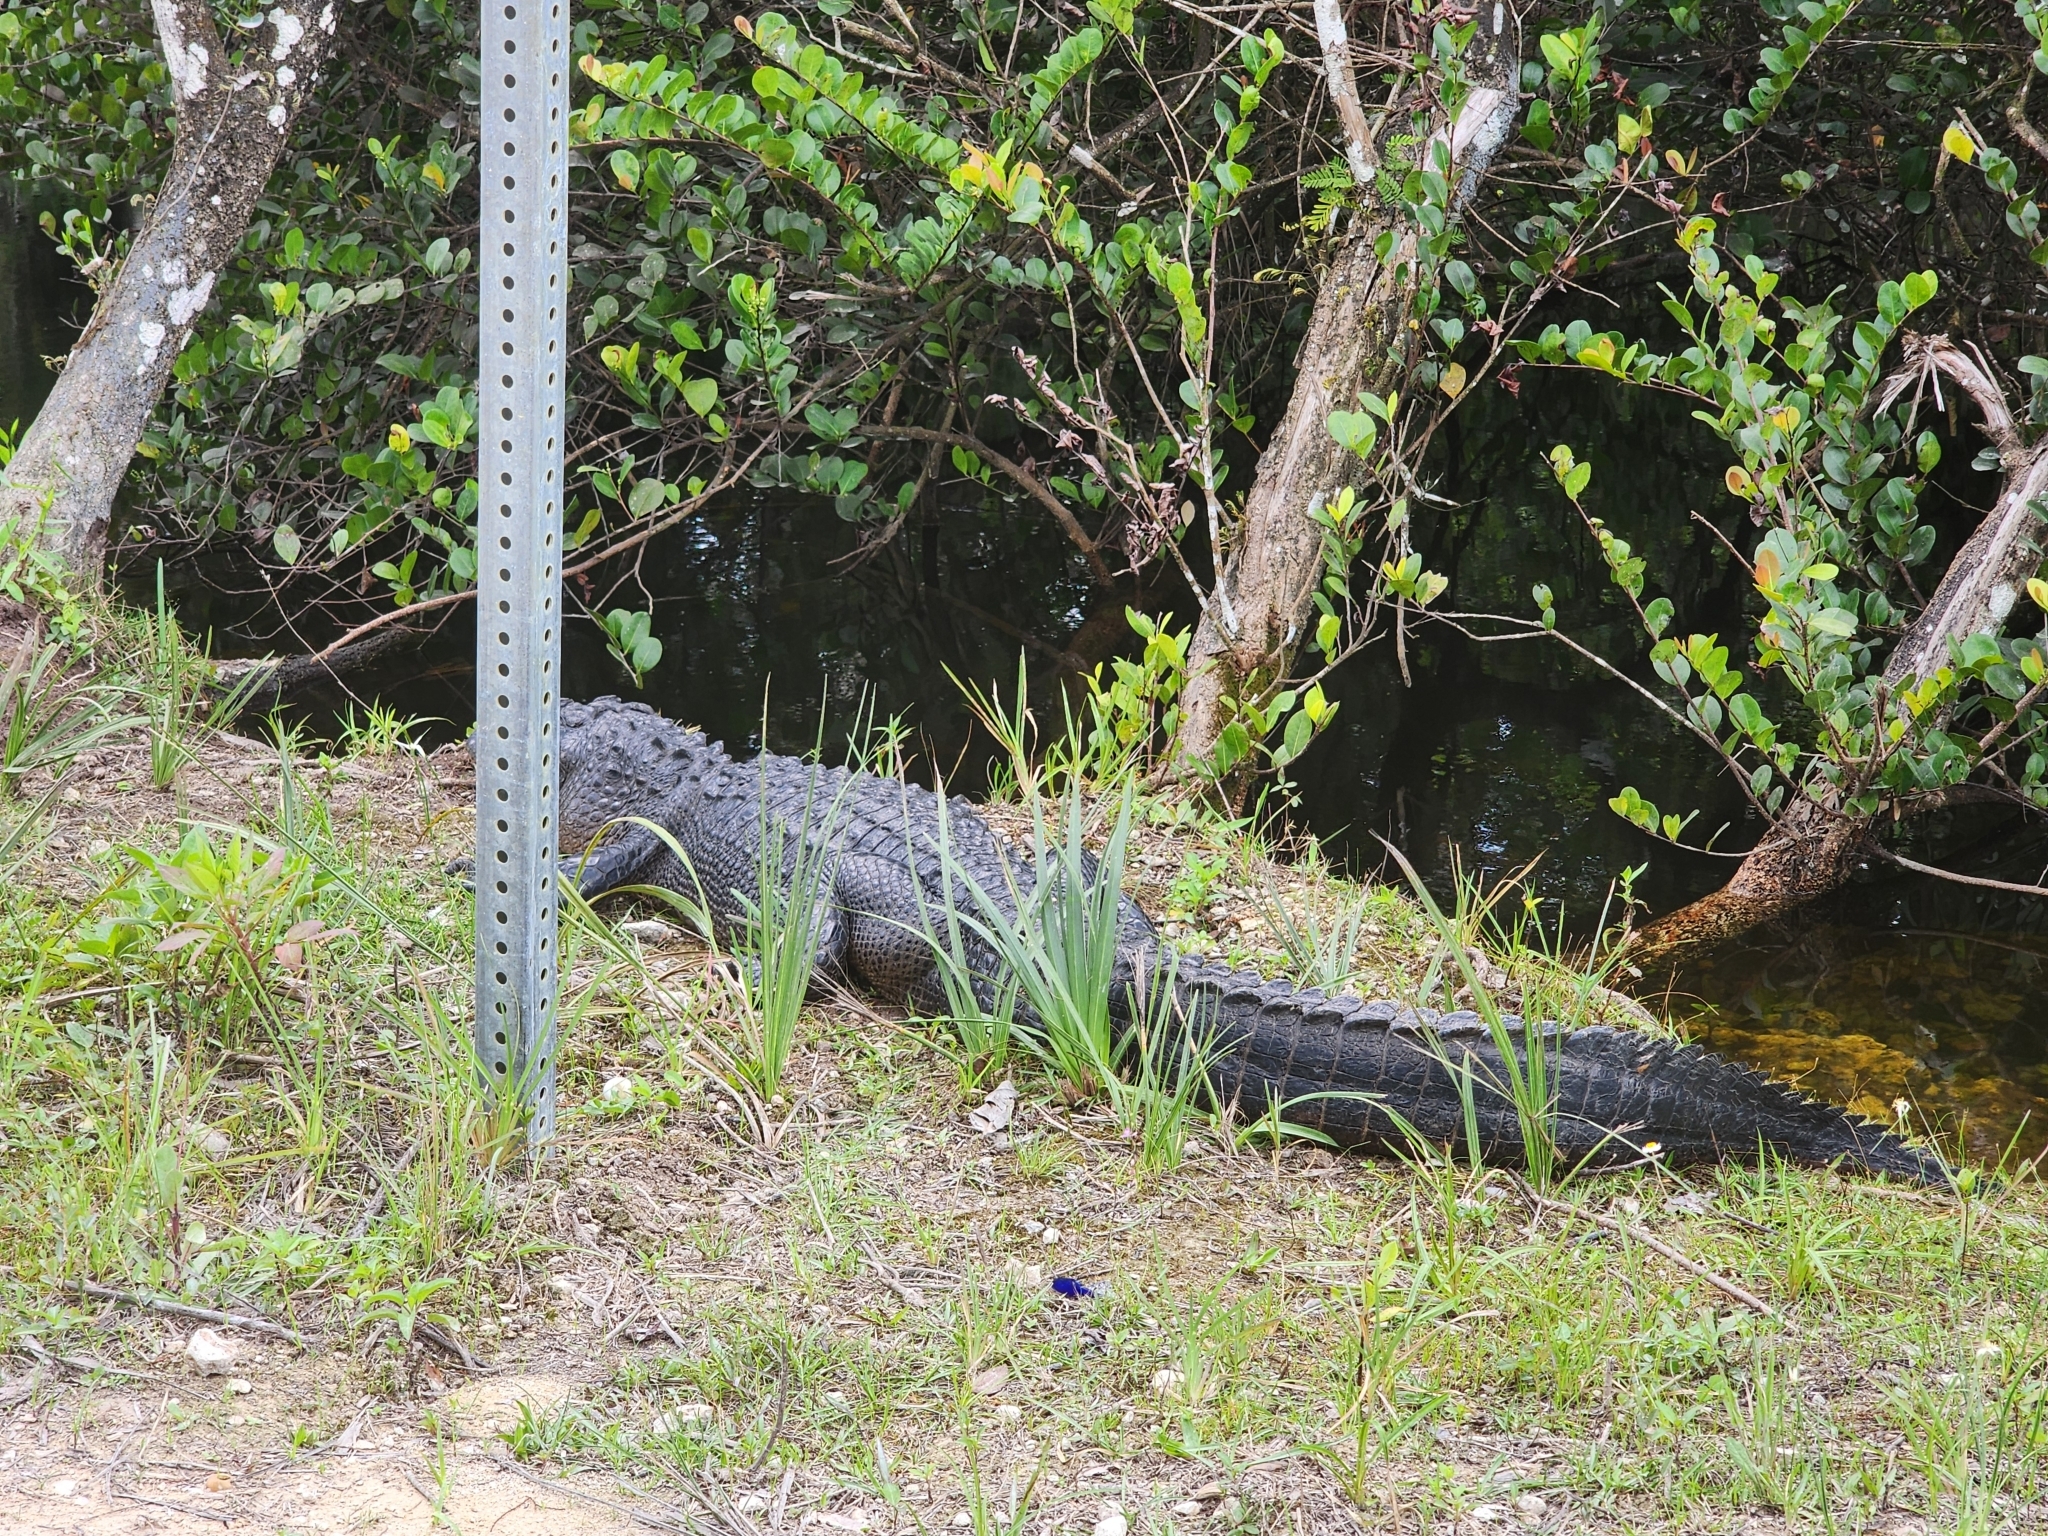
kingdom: Animalia
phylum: Chordata
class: Crocodylia
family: Alligatoridae
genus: Alligator
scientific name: Alligator mississippiensis
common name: American alligator
